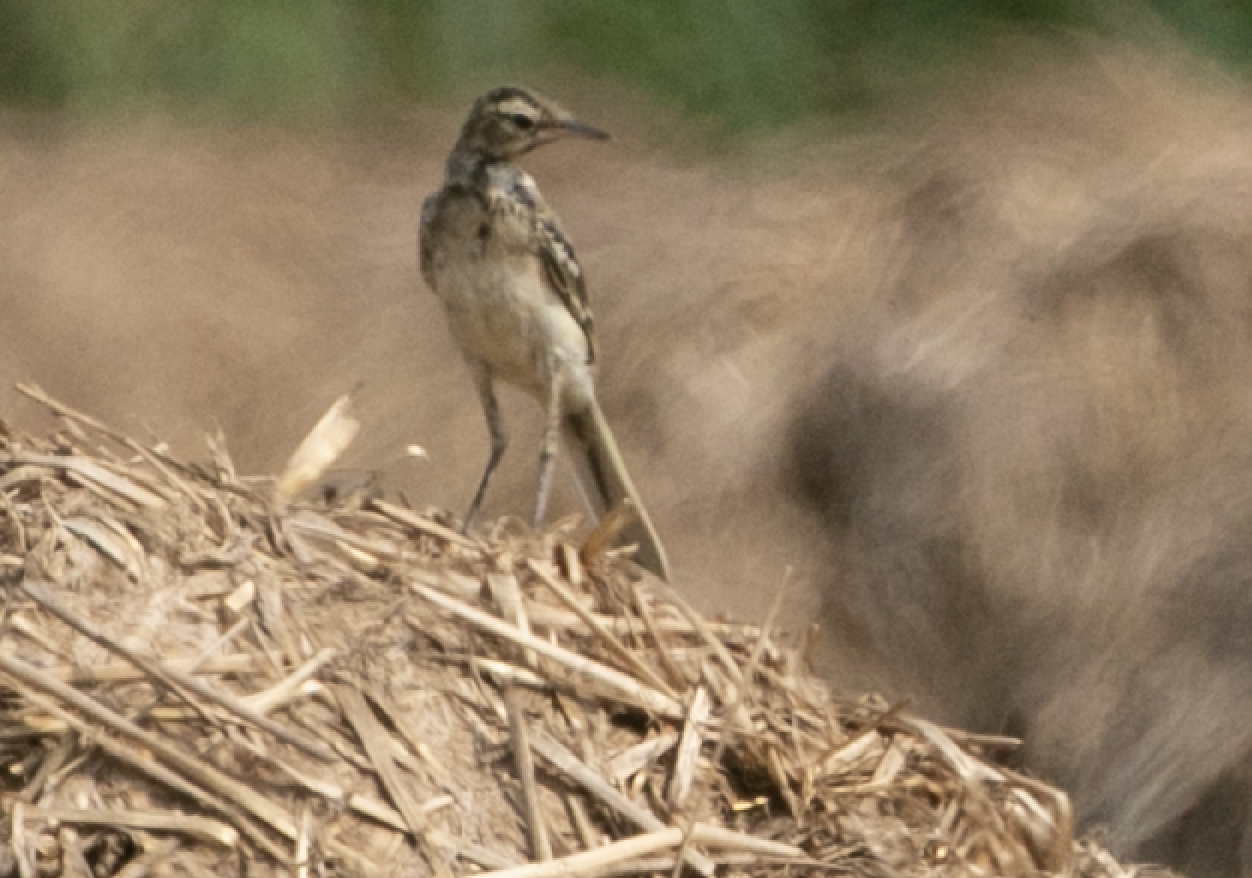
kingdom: Animalia
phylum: Chordata
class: Aves
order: Passeriformes
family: Motacillidae
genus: Motacilla
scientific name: Motacilla flava
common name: Western yellow wagtail
